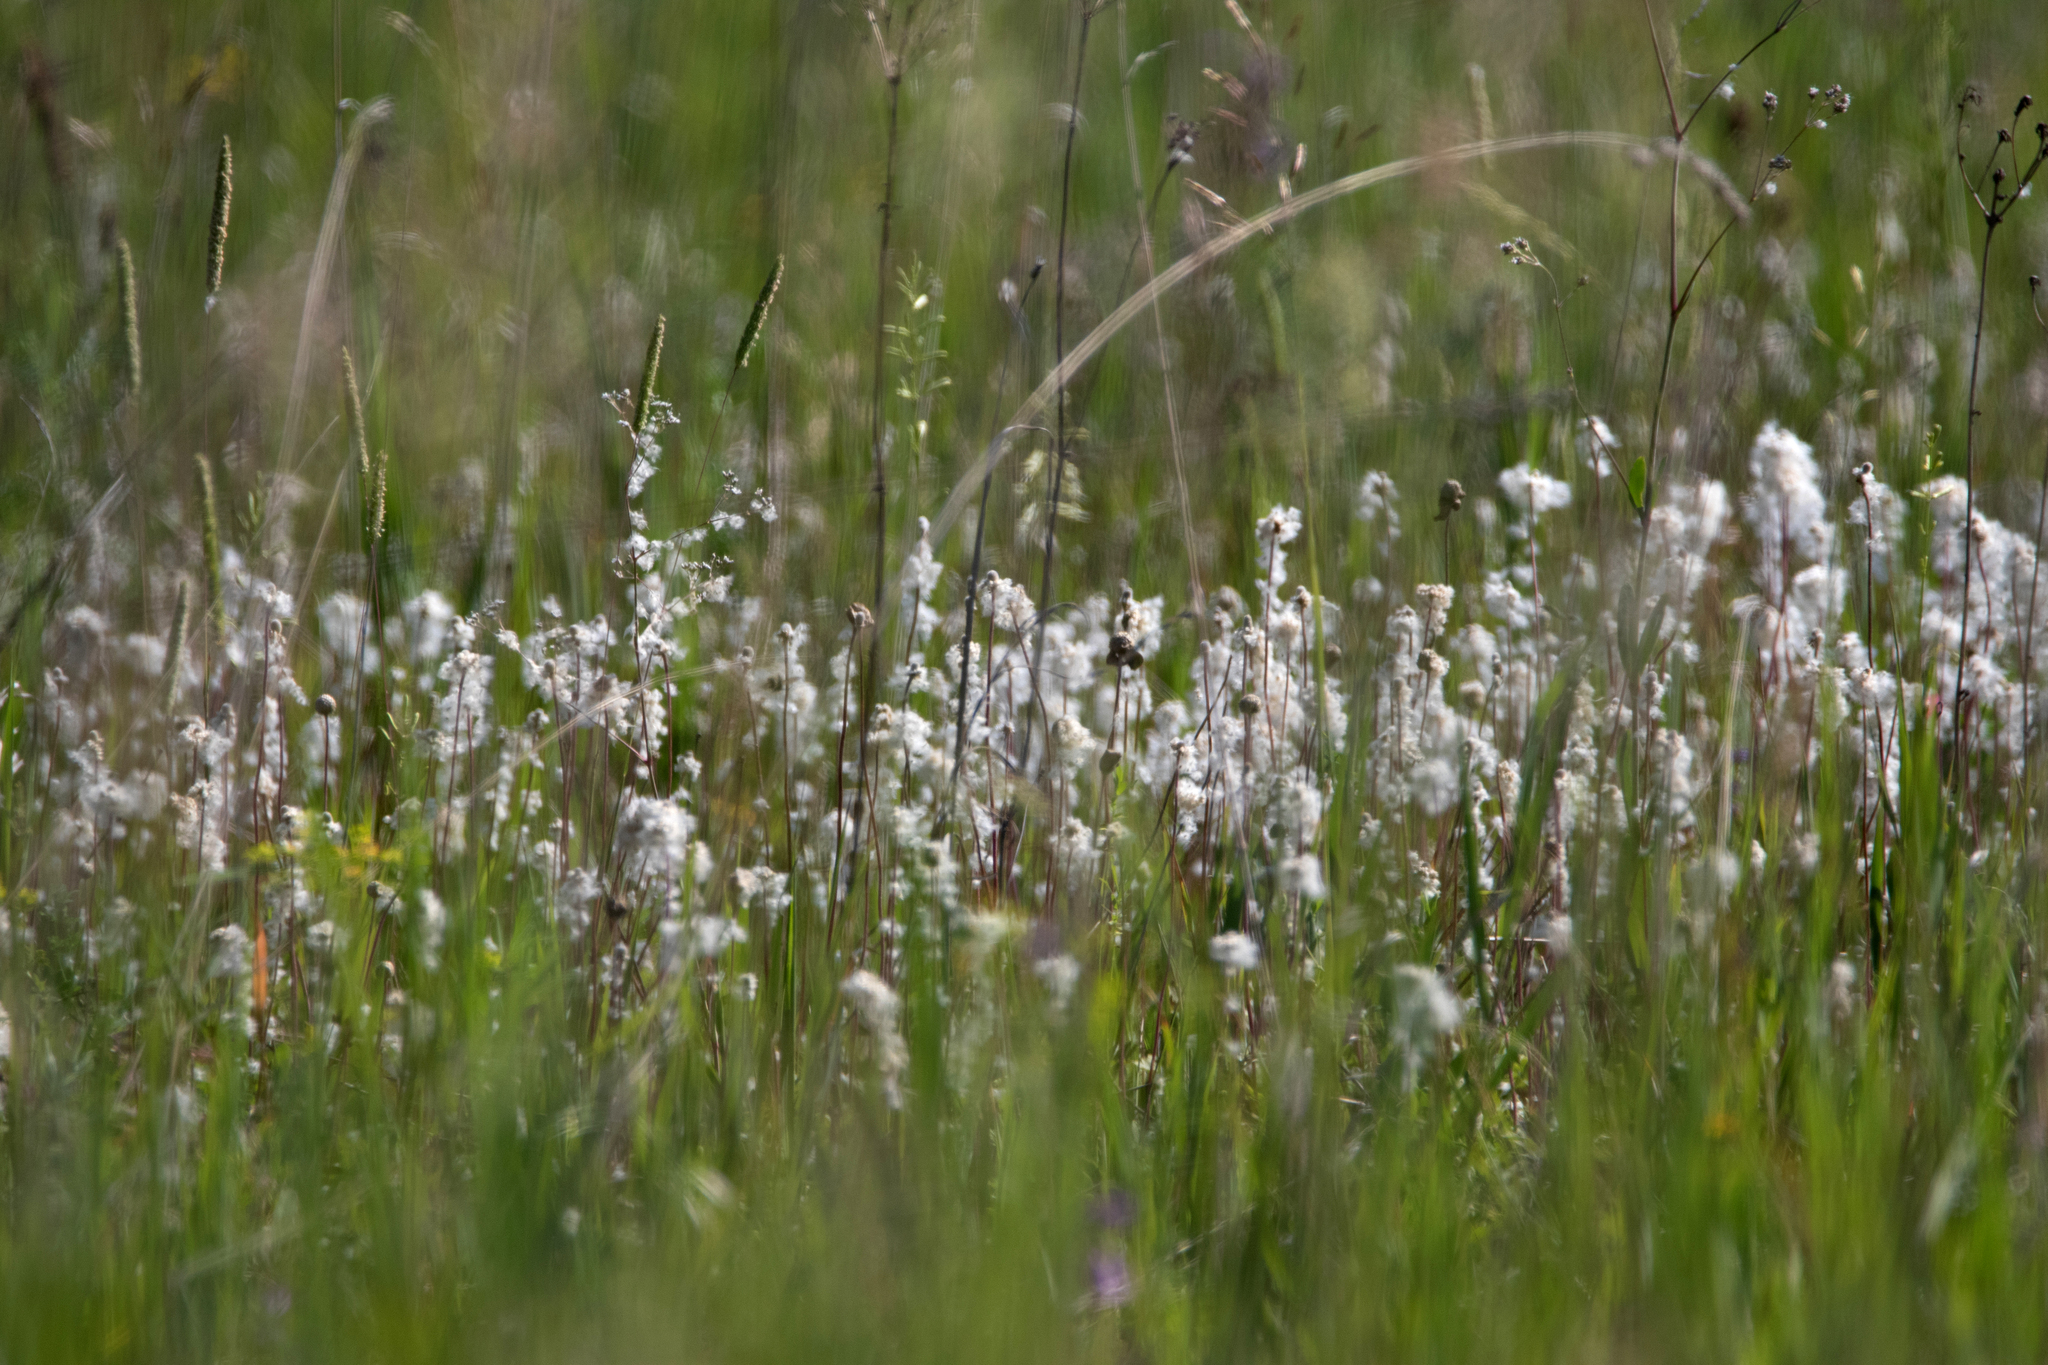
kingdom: Plantae
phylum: Tracheophyta
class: Magnoliopsida
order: Ranunculales
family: Ranunculaceae
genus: Anemone
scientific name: Anemone sylvestris
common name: Snowdrop anemone
